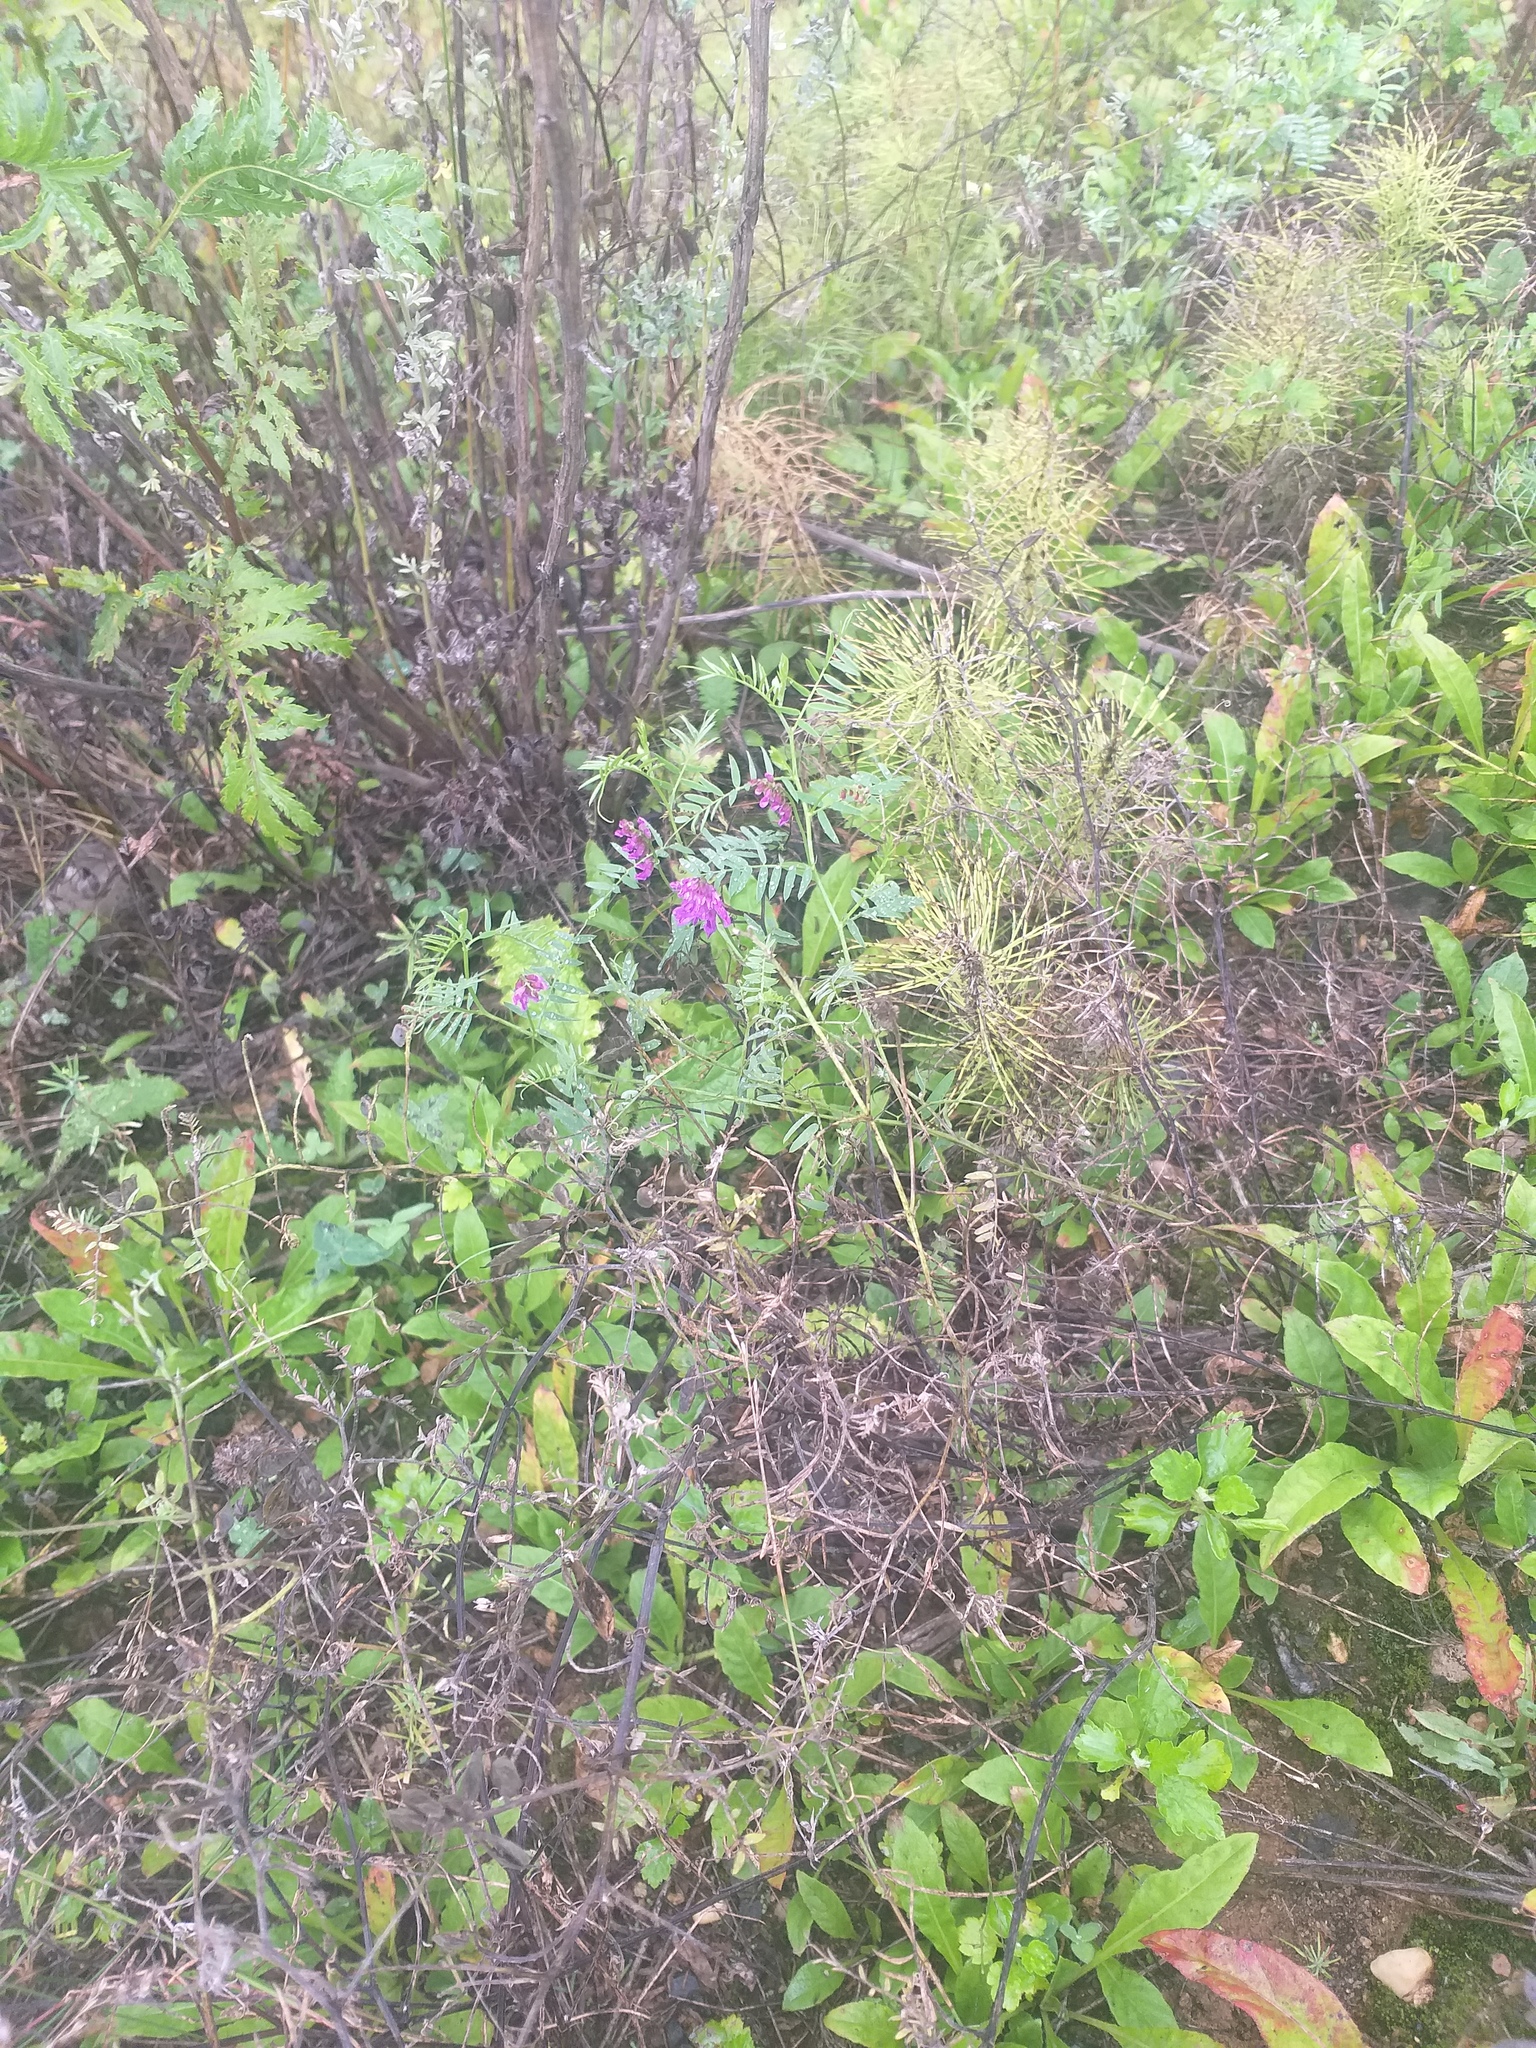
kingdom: Plantae
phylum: Tracheophyta
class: Magnoliopsida
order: Fabales
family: Fabaceae
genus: Vicia
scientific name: Vicia cracca
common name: Bird vetch
